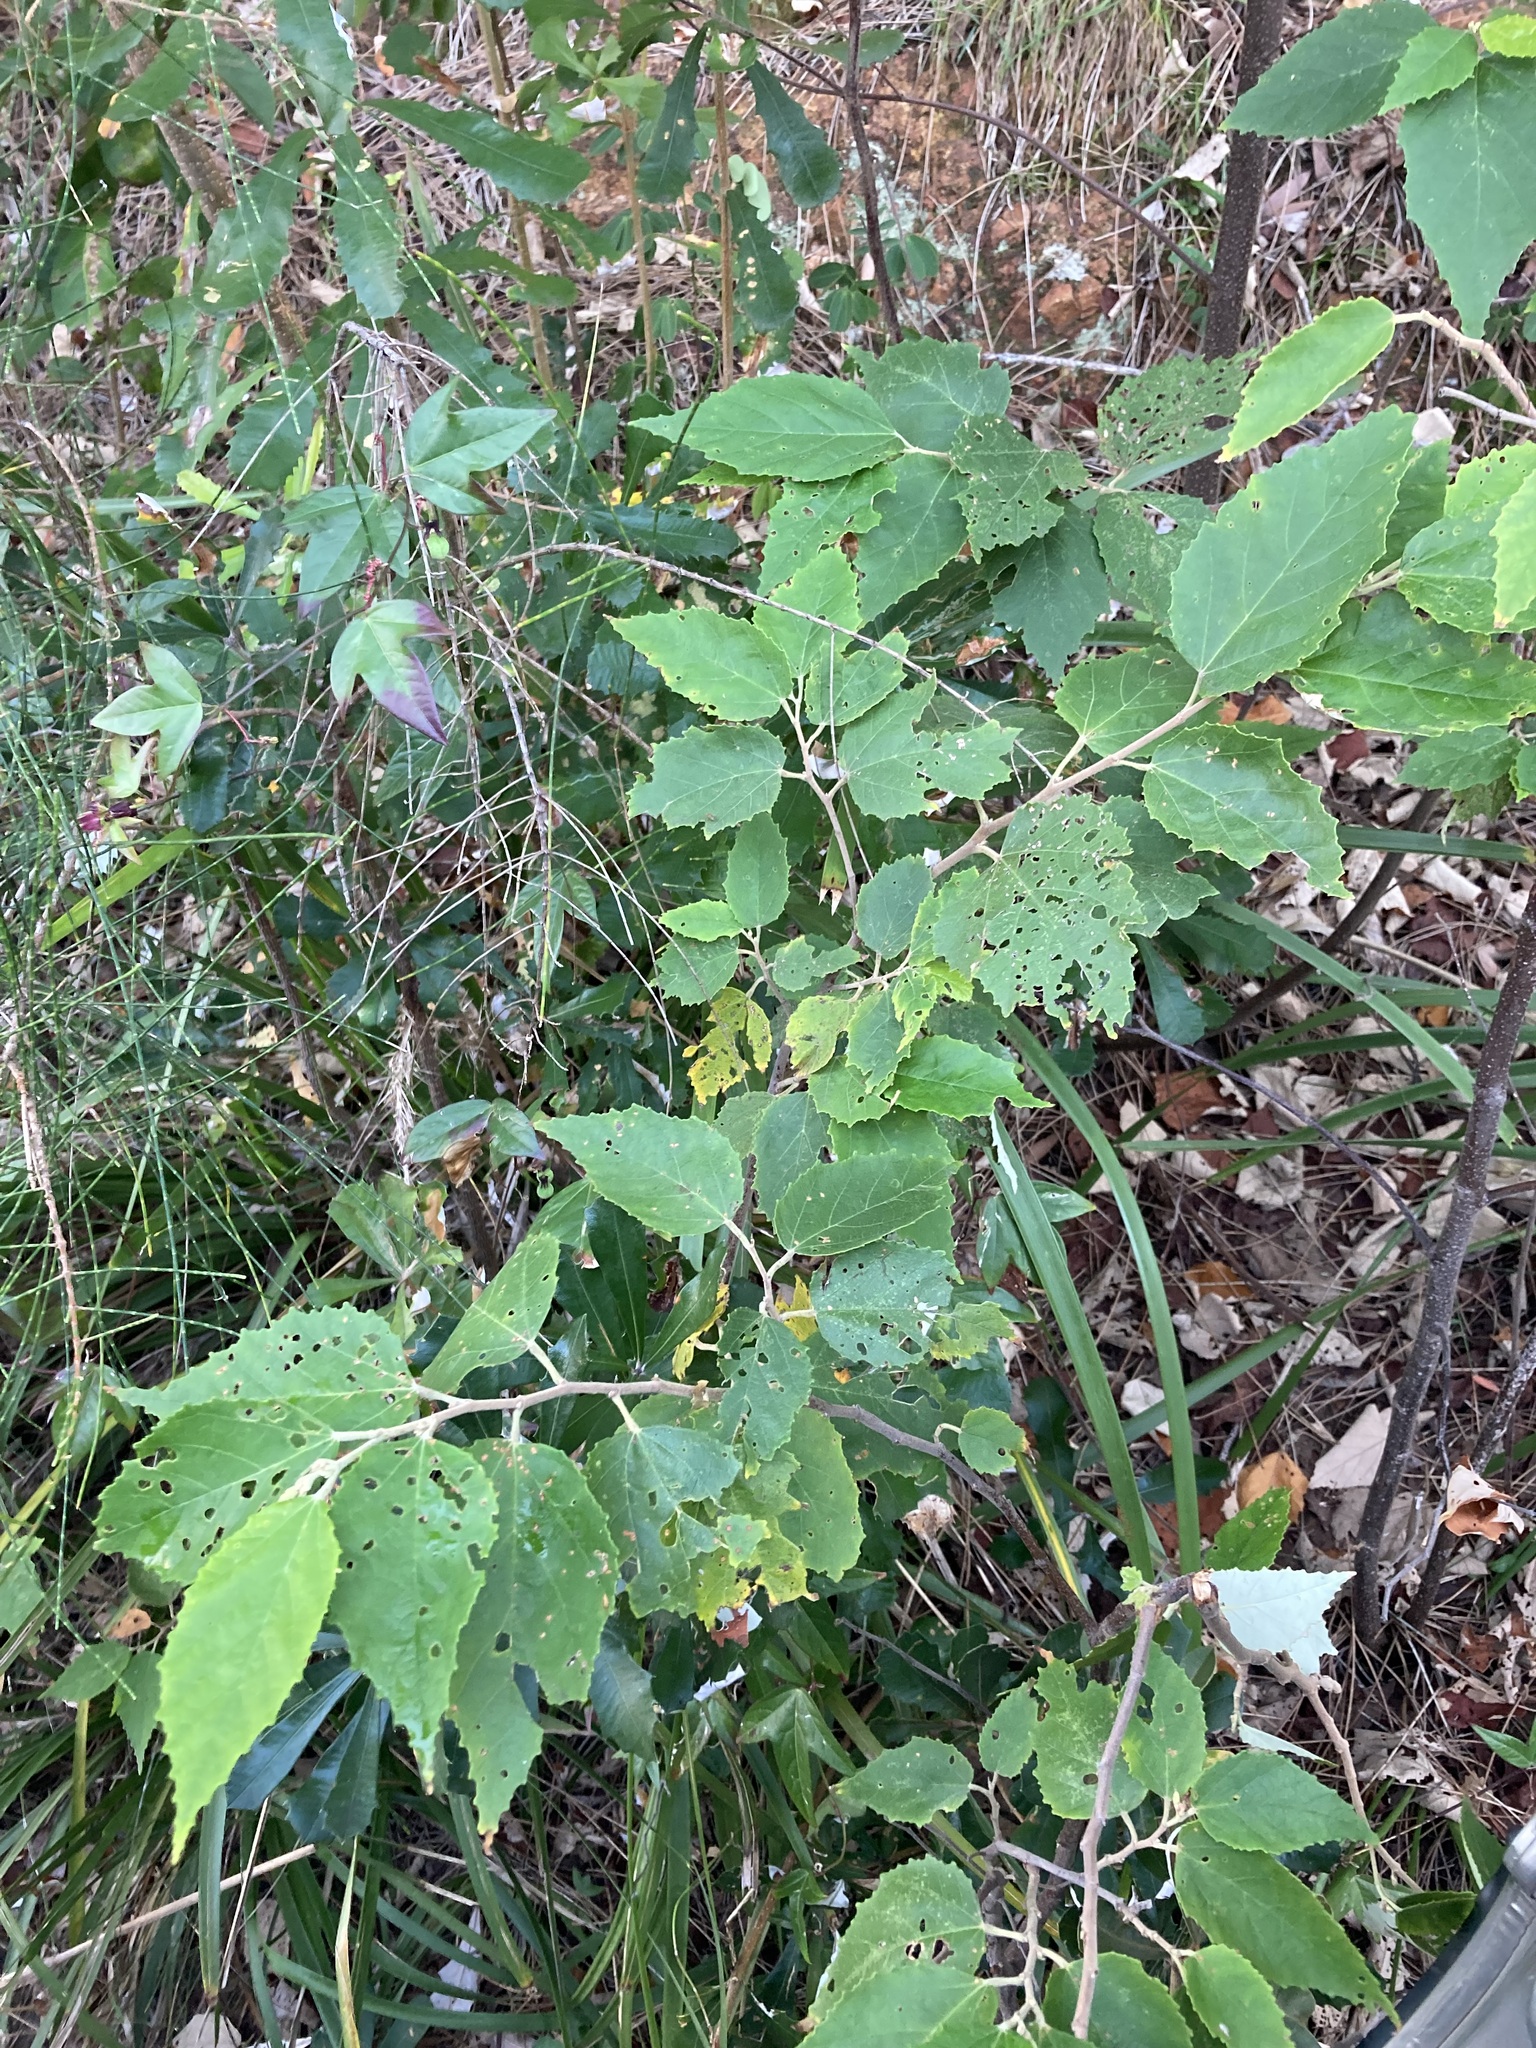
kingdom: Plantae
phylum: Tracheophyta
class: Magnoliopsida
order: Malvales
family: Malvaceae
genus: Androcalva
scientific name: Androcalva fraseri
